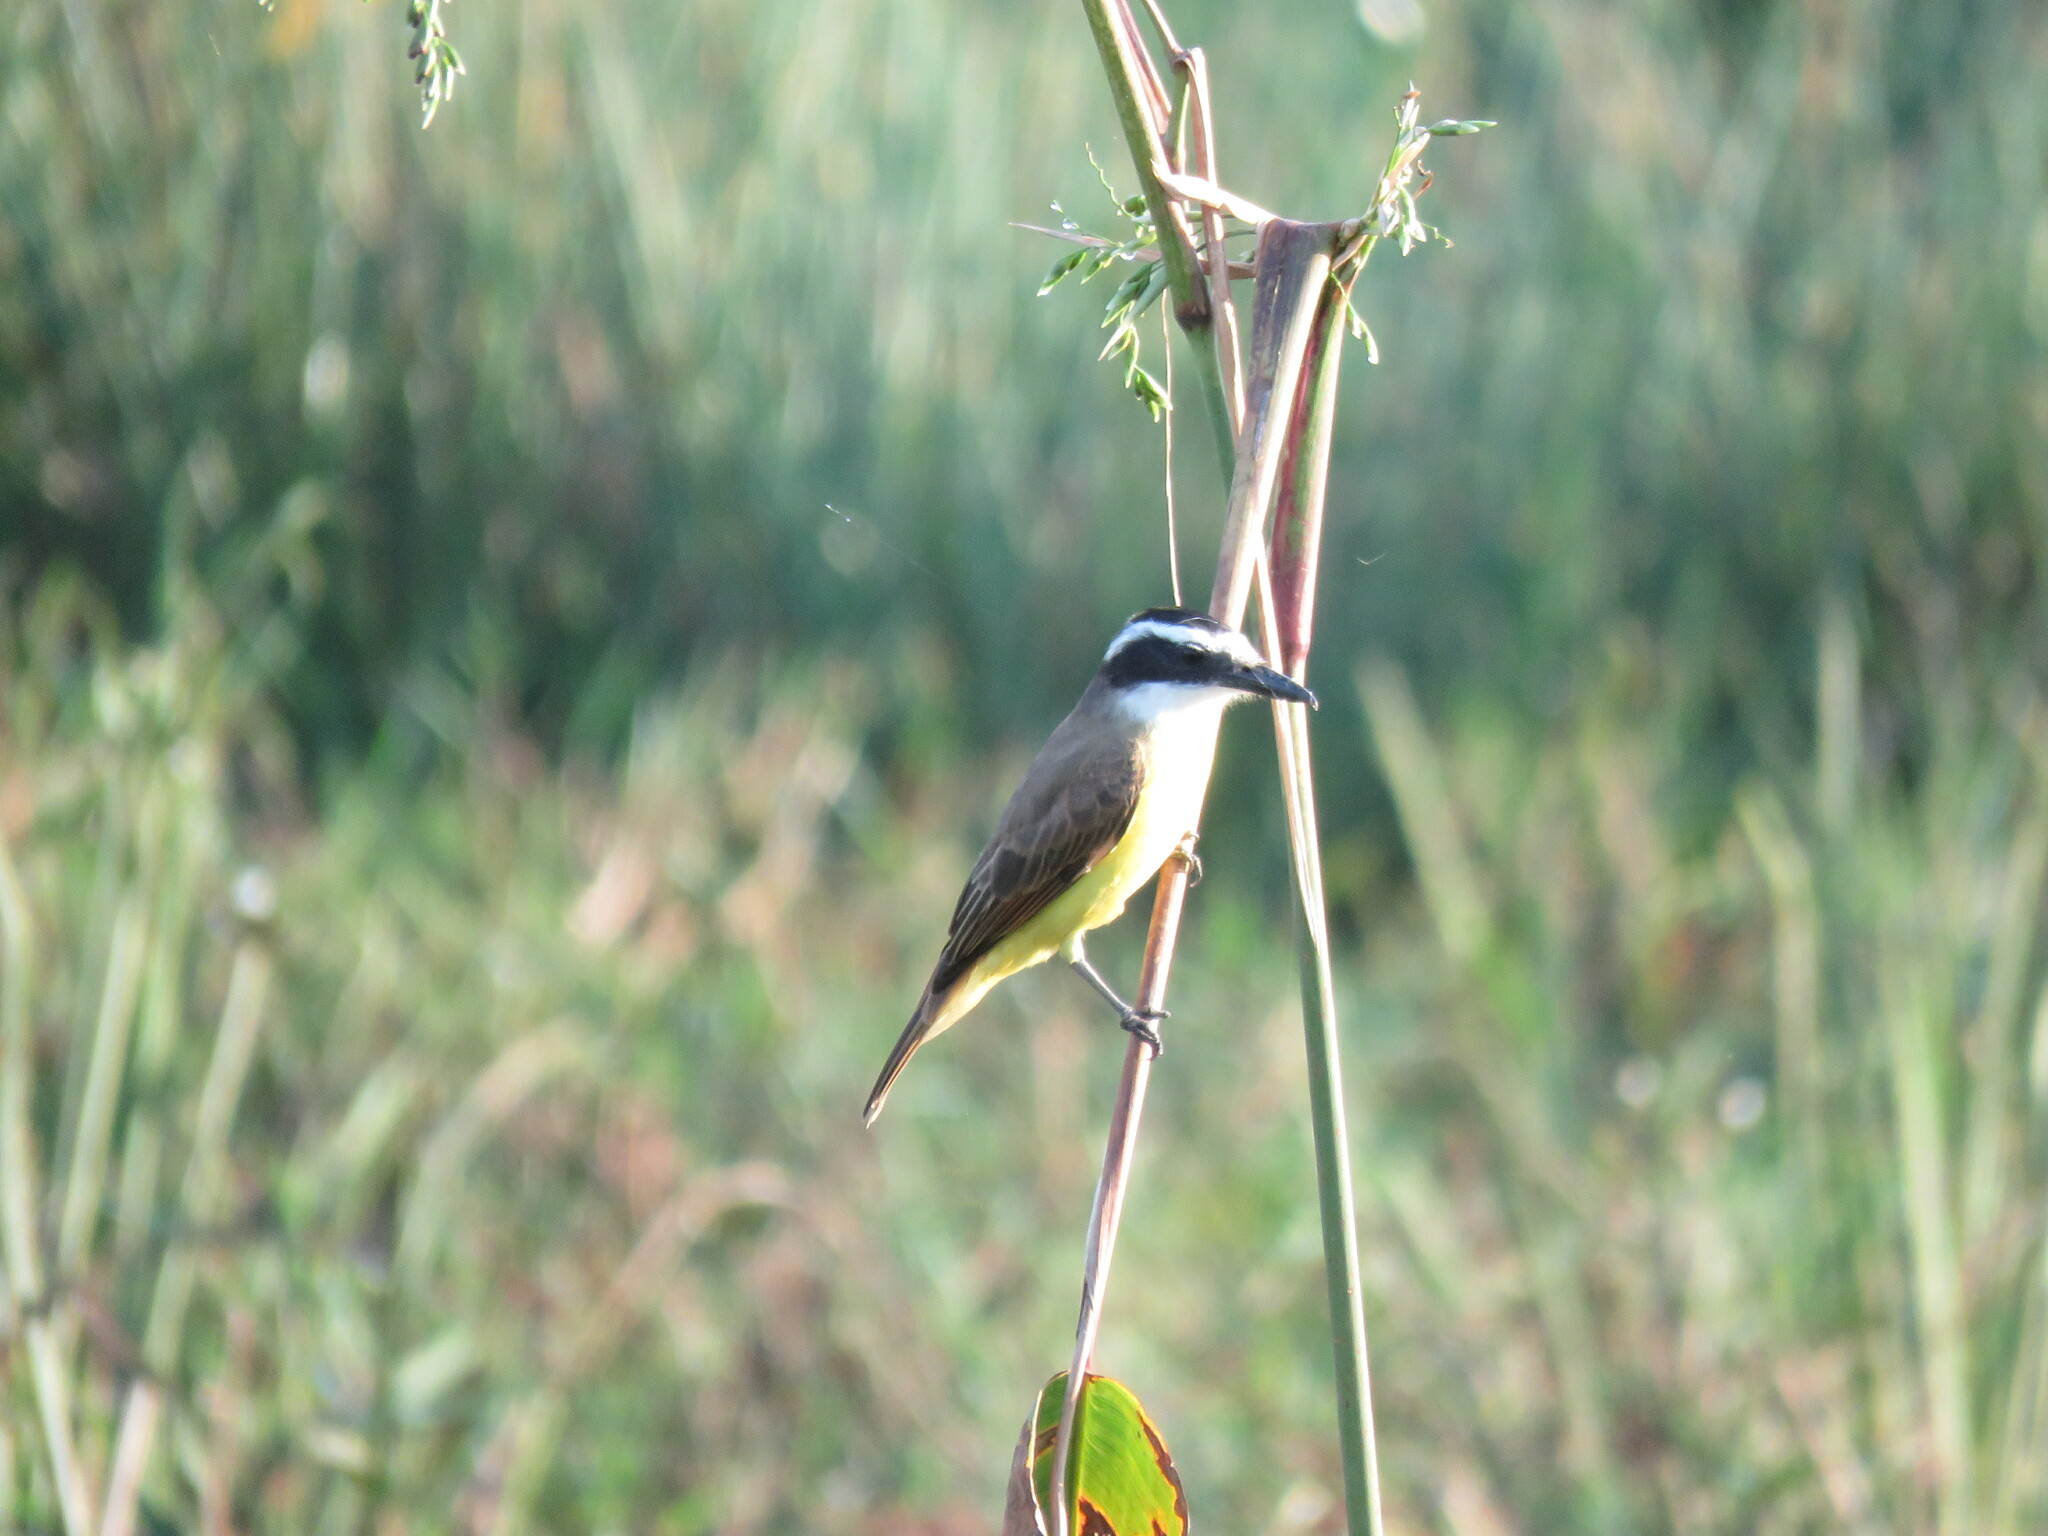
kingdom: Animalia
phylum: Chordata
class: Aves
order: Passeriformes
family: Tyrannidae
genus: Pitangus
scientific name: Pitangus sulphuratus
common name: Great kiskadee
